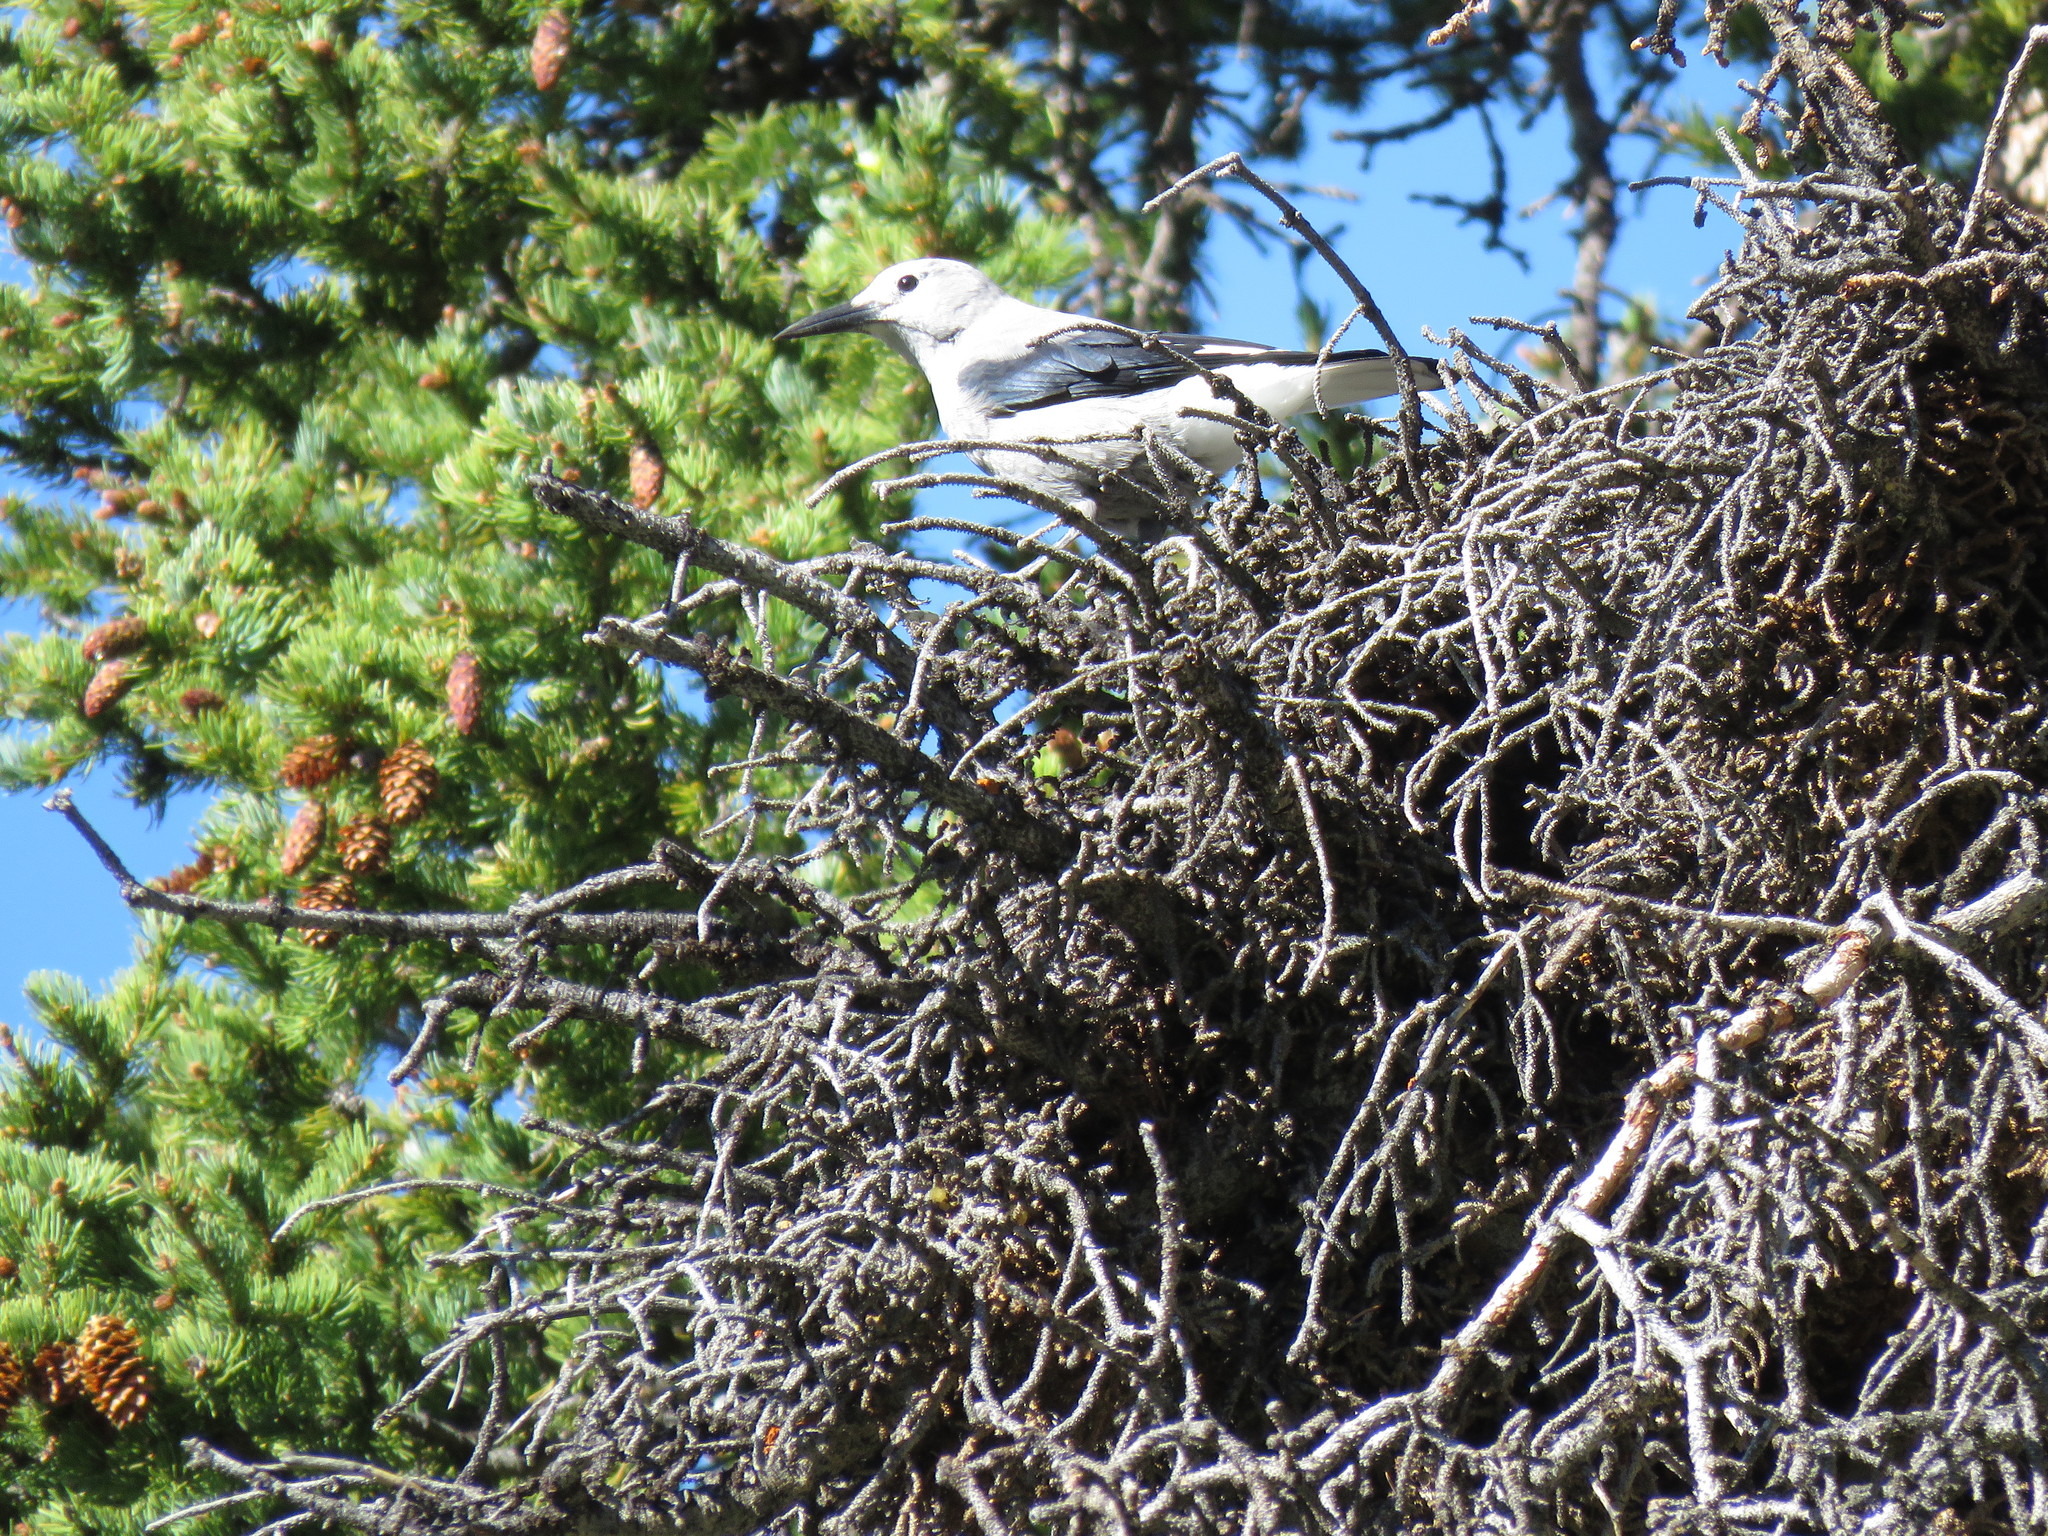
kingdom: Animalia
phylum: Chordata
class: Aves
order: Passeriformes
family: Corvidae
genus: Nucifraga
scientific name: Nucifraga columbiana
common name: Clark's nutcracker
